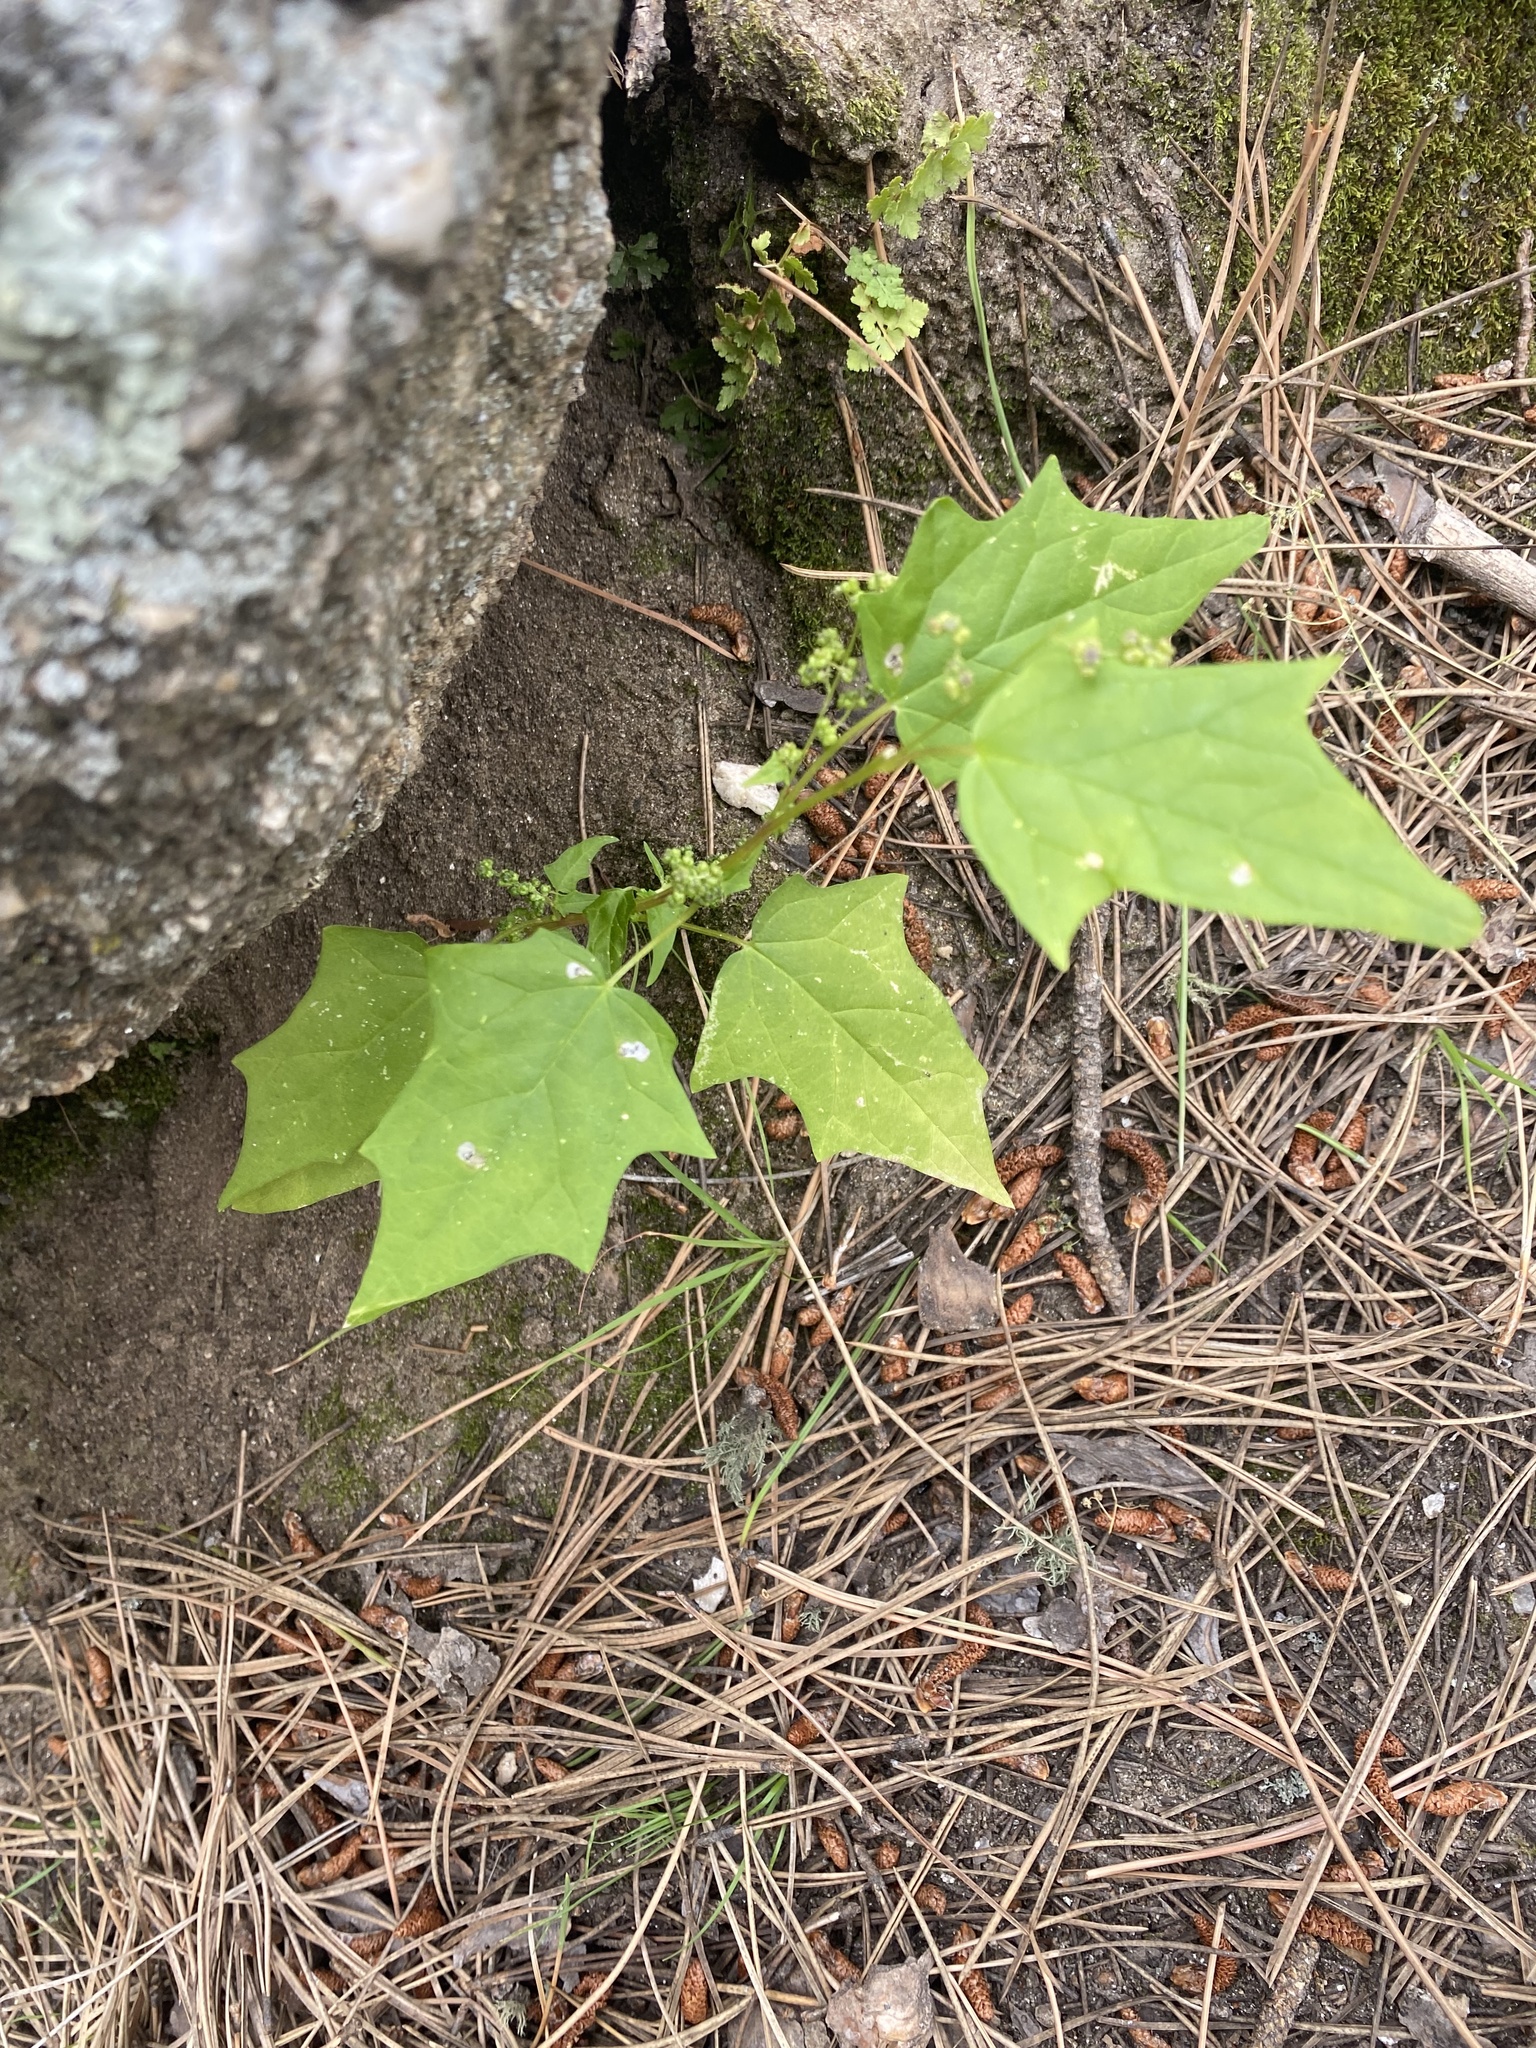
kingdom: Plantae
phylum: Tracheophyta
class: Magnoliopsida
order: Caryophyllales
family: Amaranthaceae
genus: Chenopodiastrum
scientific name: Chenopodiastrum simplex
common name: Large-seed goosefoot
